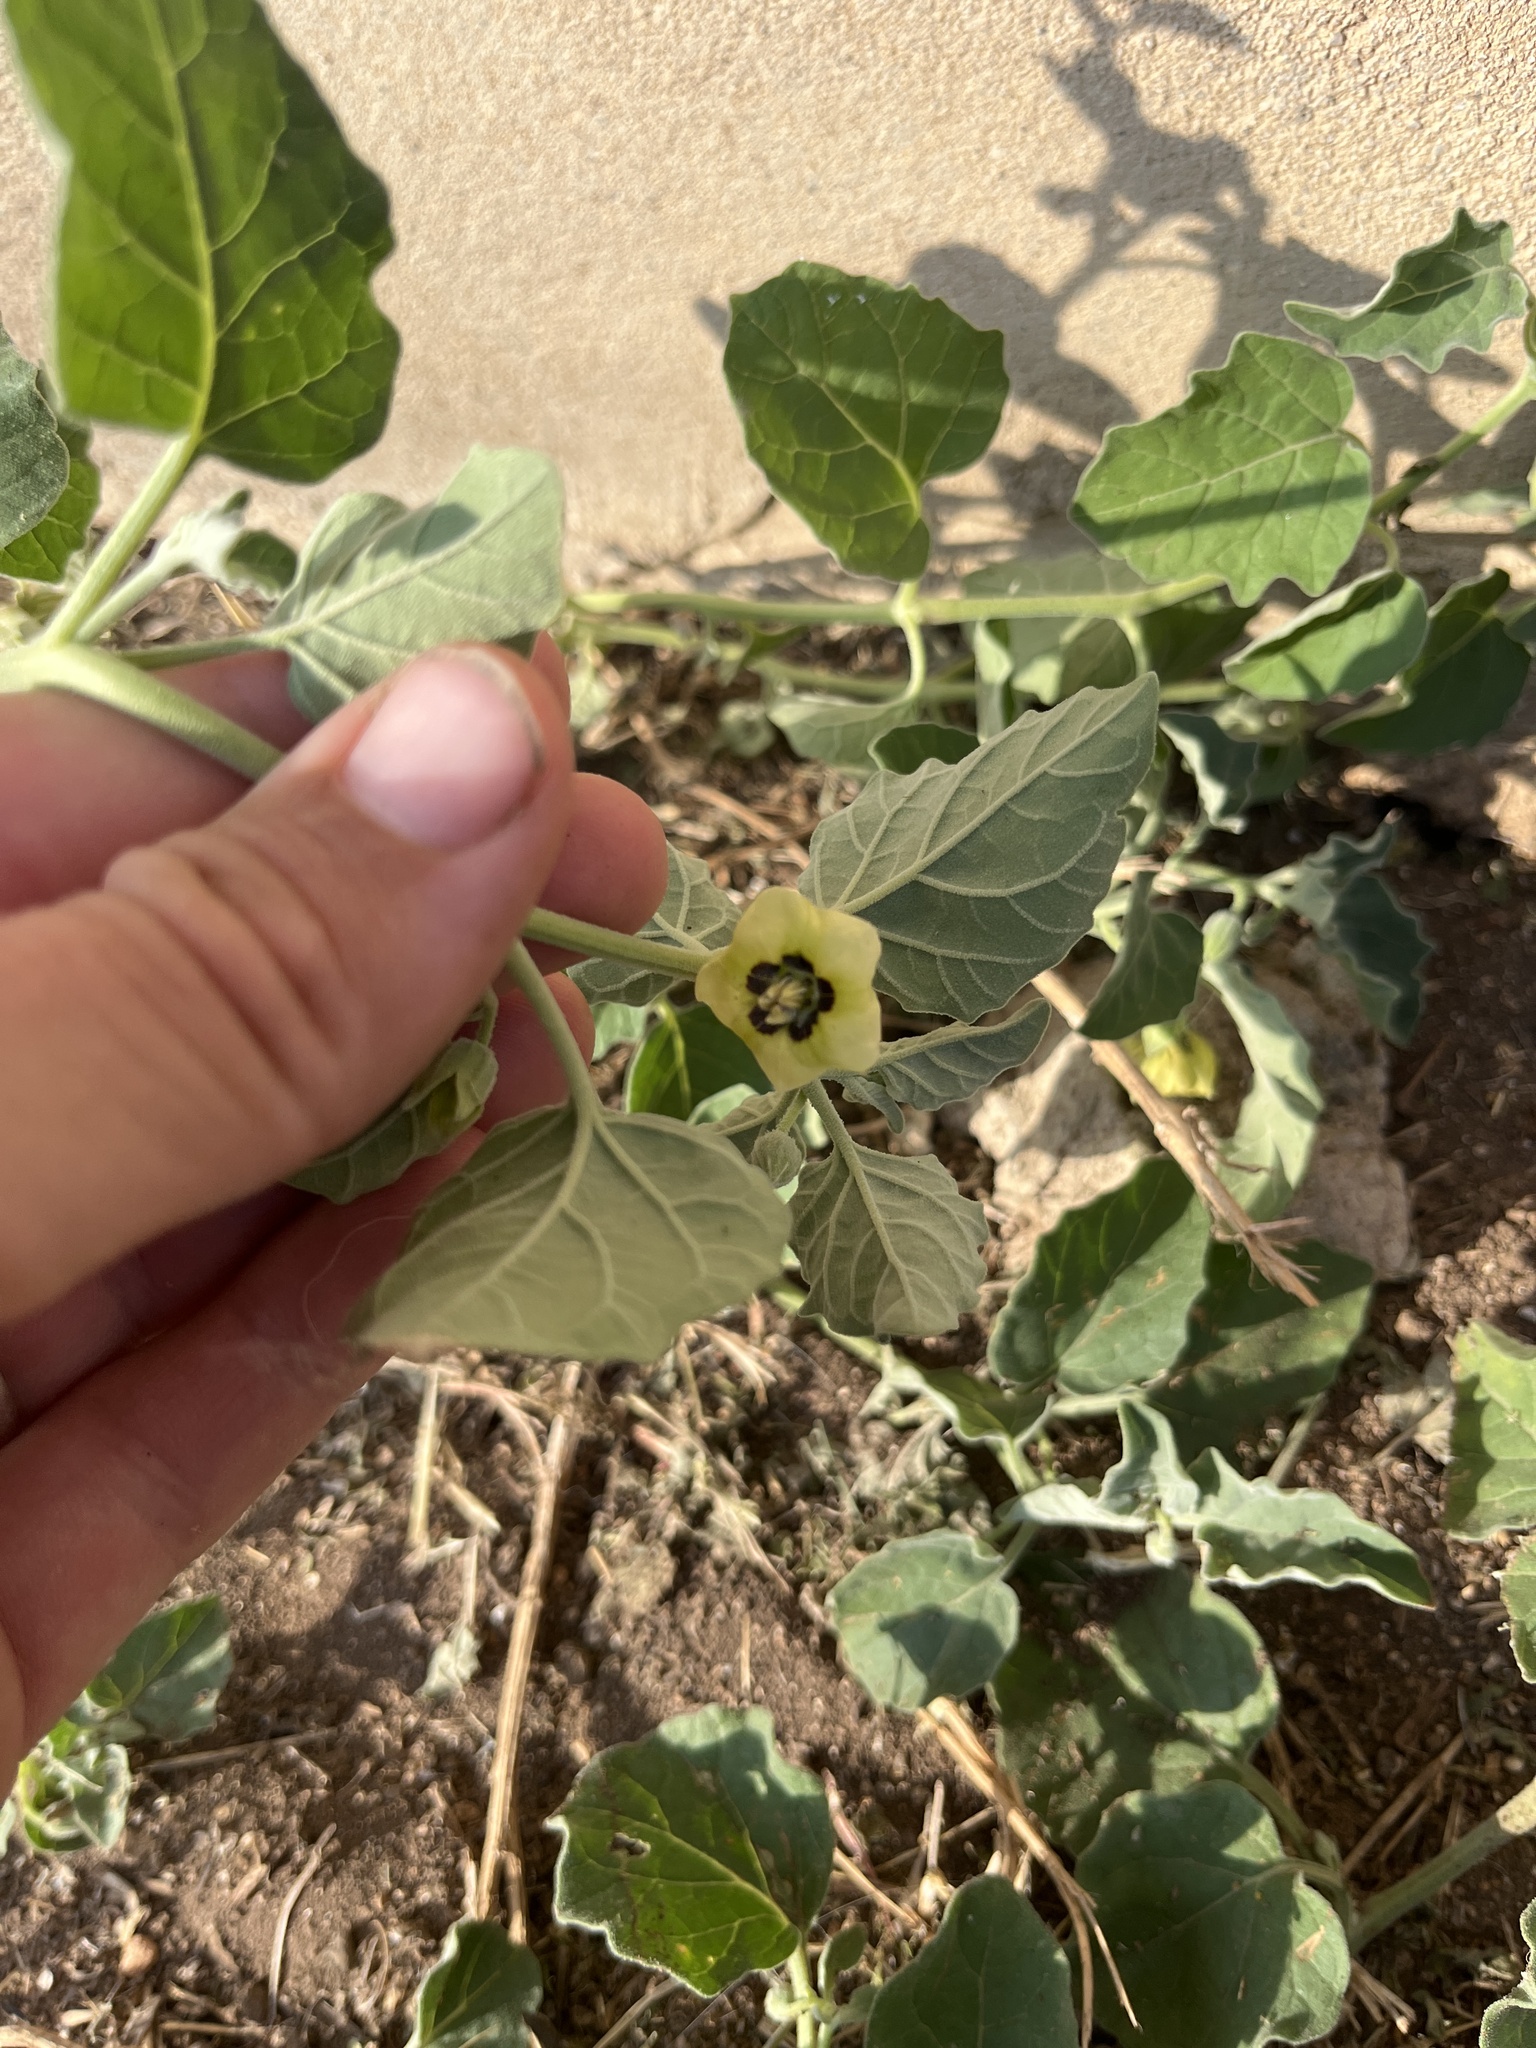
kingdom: Plantae
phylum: Tracheophyta
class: Magnoliopsida
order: Solanales
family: Solanaceae
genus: Physalis
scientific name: Physalis cinerascens
